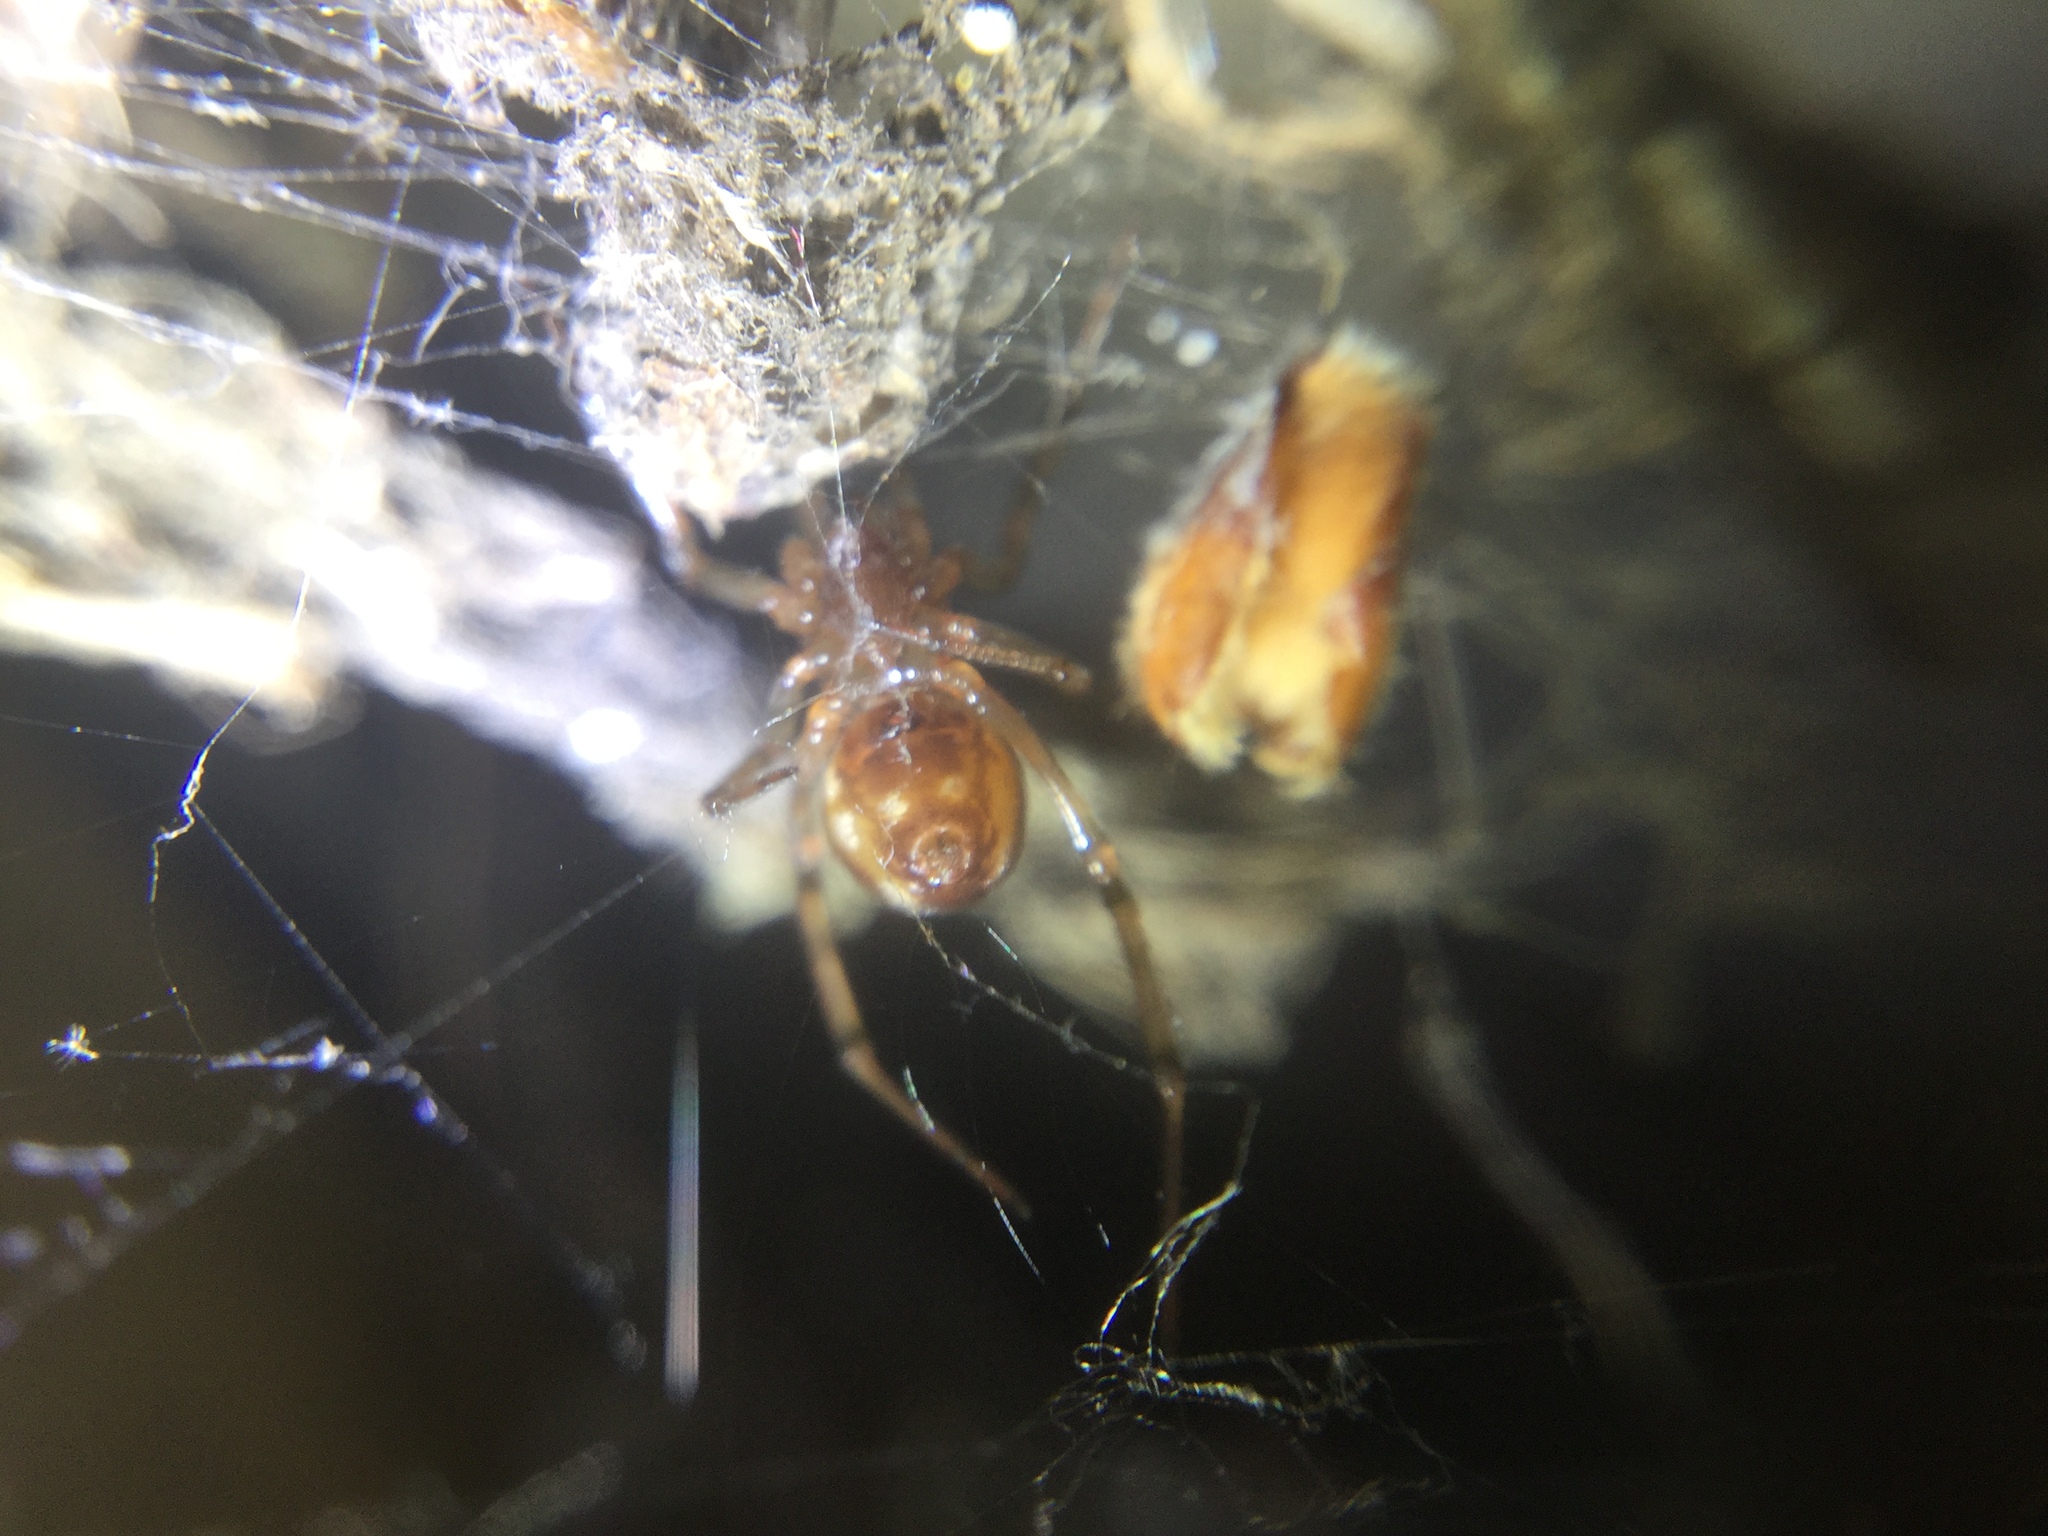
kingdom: Animalia
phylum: Arthropoda
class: Arachnida
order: Araneae
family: Theridiidae
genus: Steatoda
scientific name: Steatoda triangulosa
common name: Triangulate bud spider
